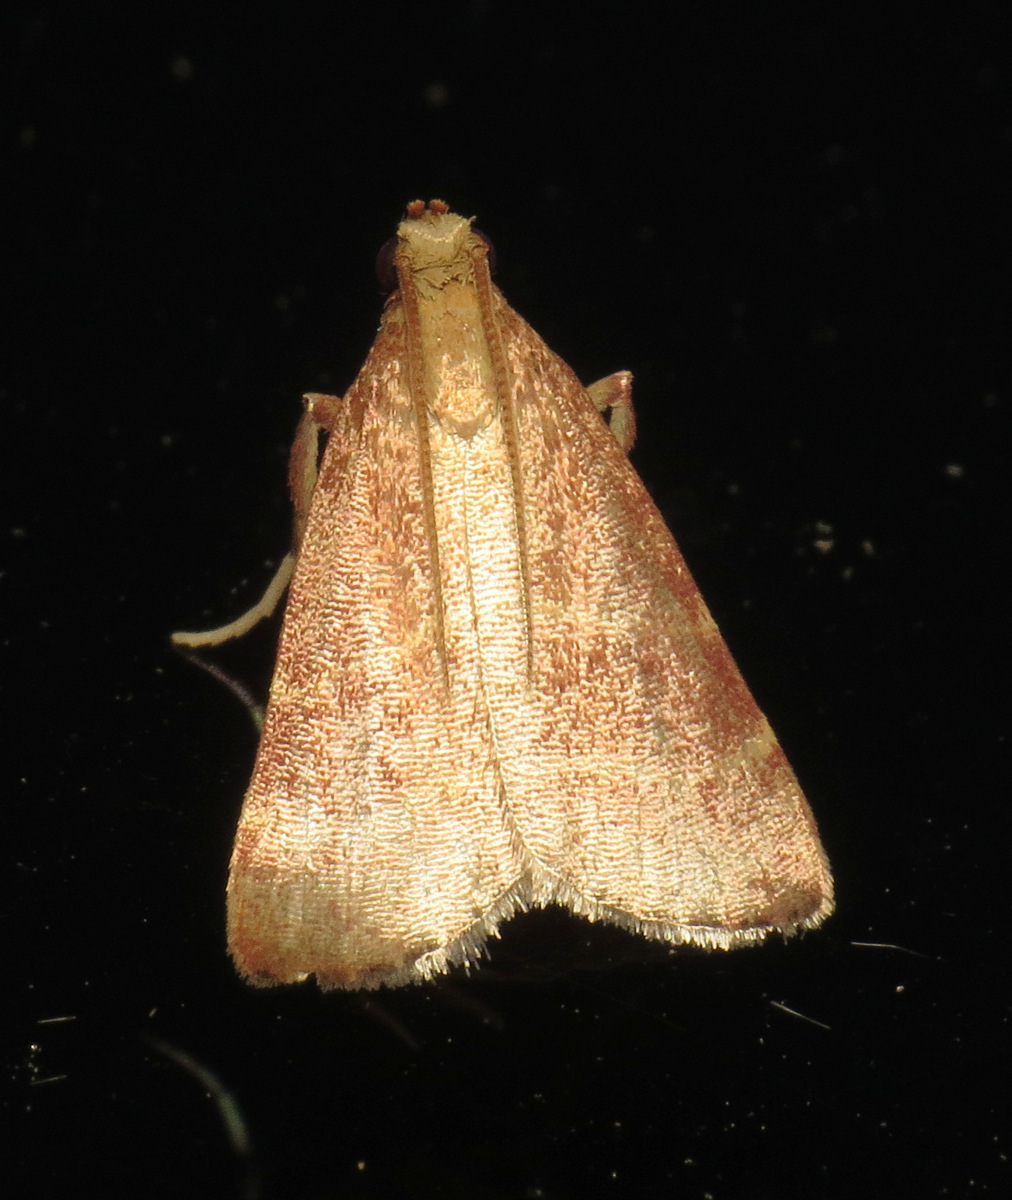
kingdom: Animalia
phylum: Arthropoda
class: Insecta
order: Lepidoptera
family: Pyralidae
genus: Condylolomia
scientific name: Condylolomia participialis
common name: Drab condylolomia moth
